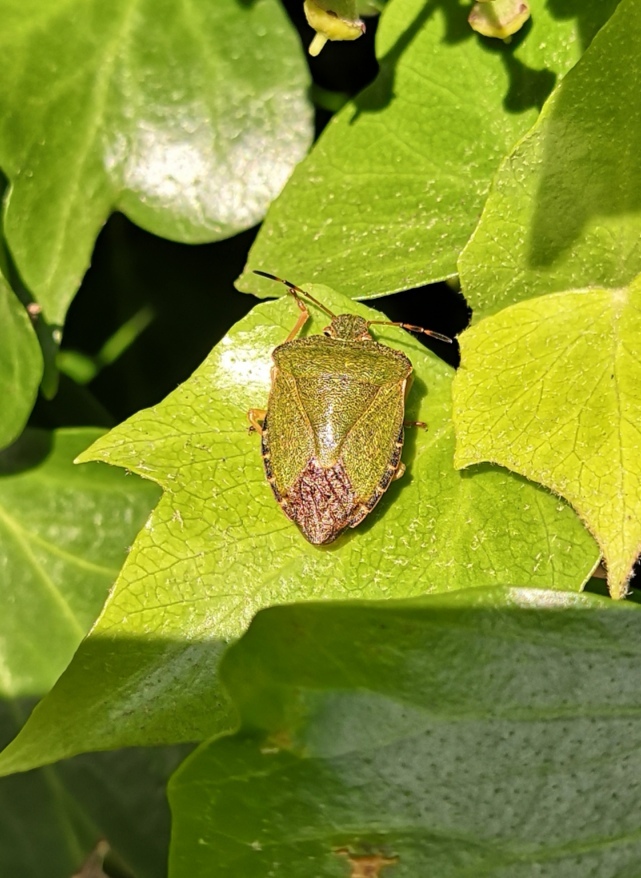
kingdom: Animalia
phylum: Arthropoda
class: Insecta
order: Hemiptera
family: Pentatomidae
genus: Palomena
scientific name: Palomena prasina
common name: Green shieldbug
